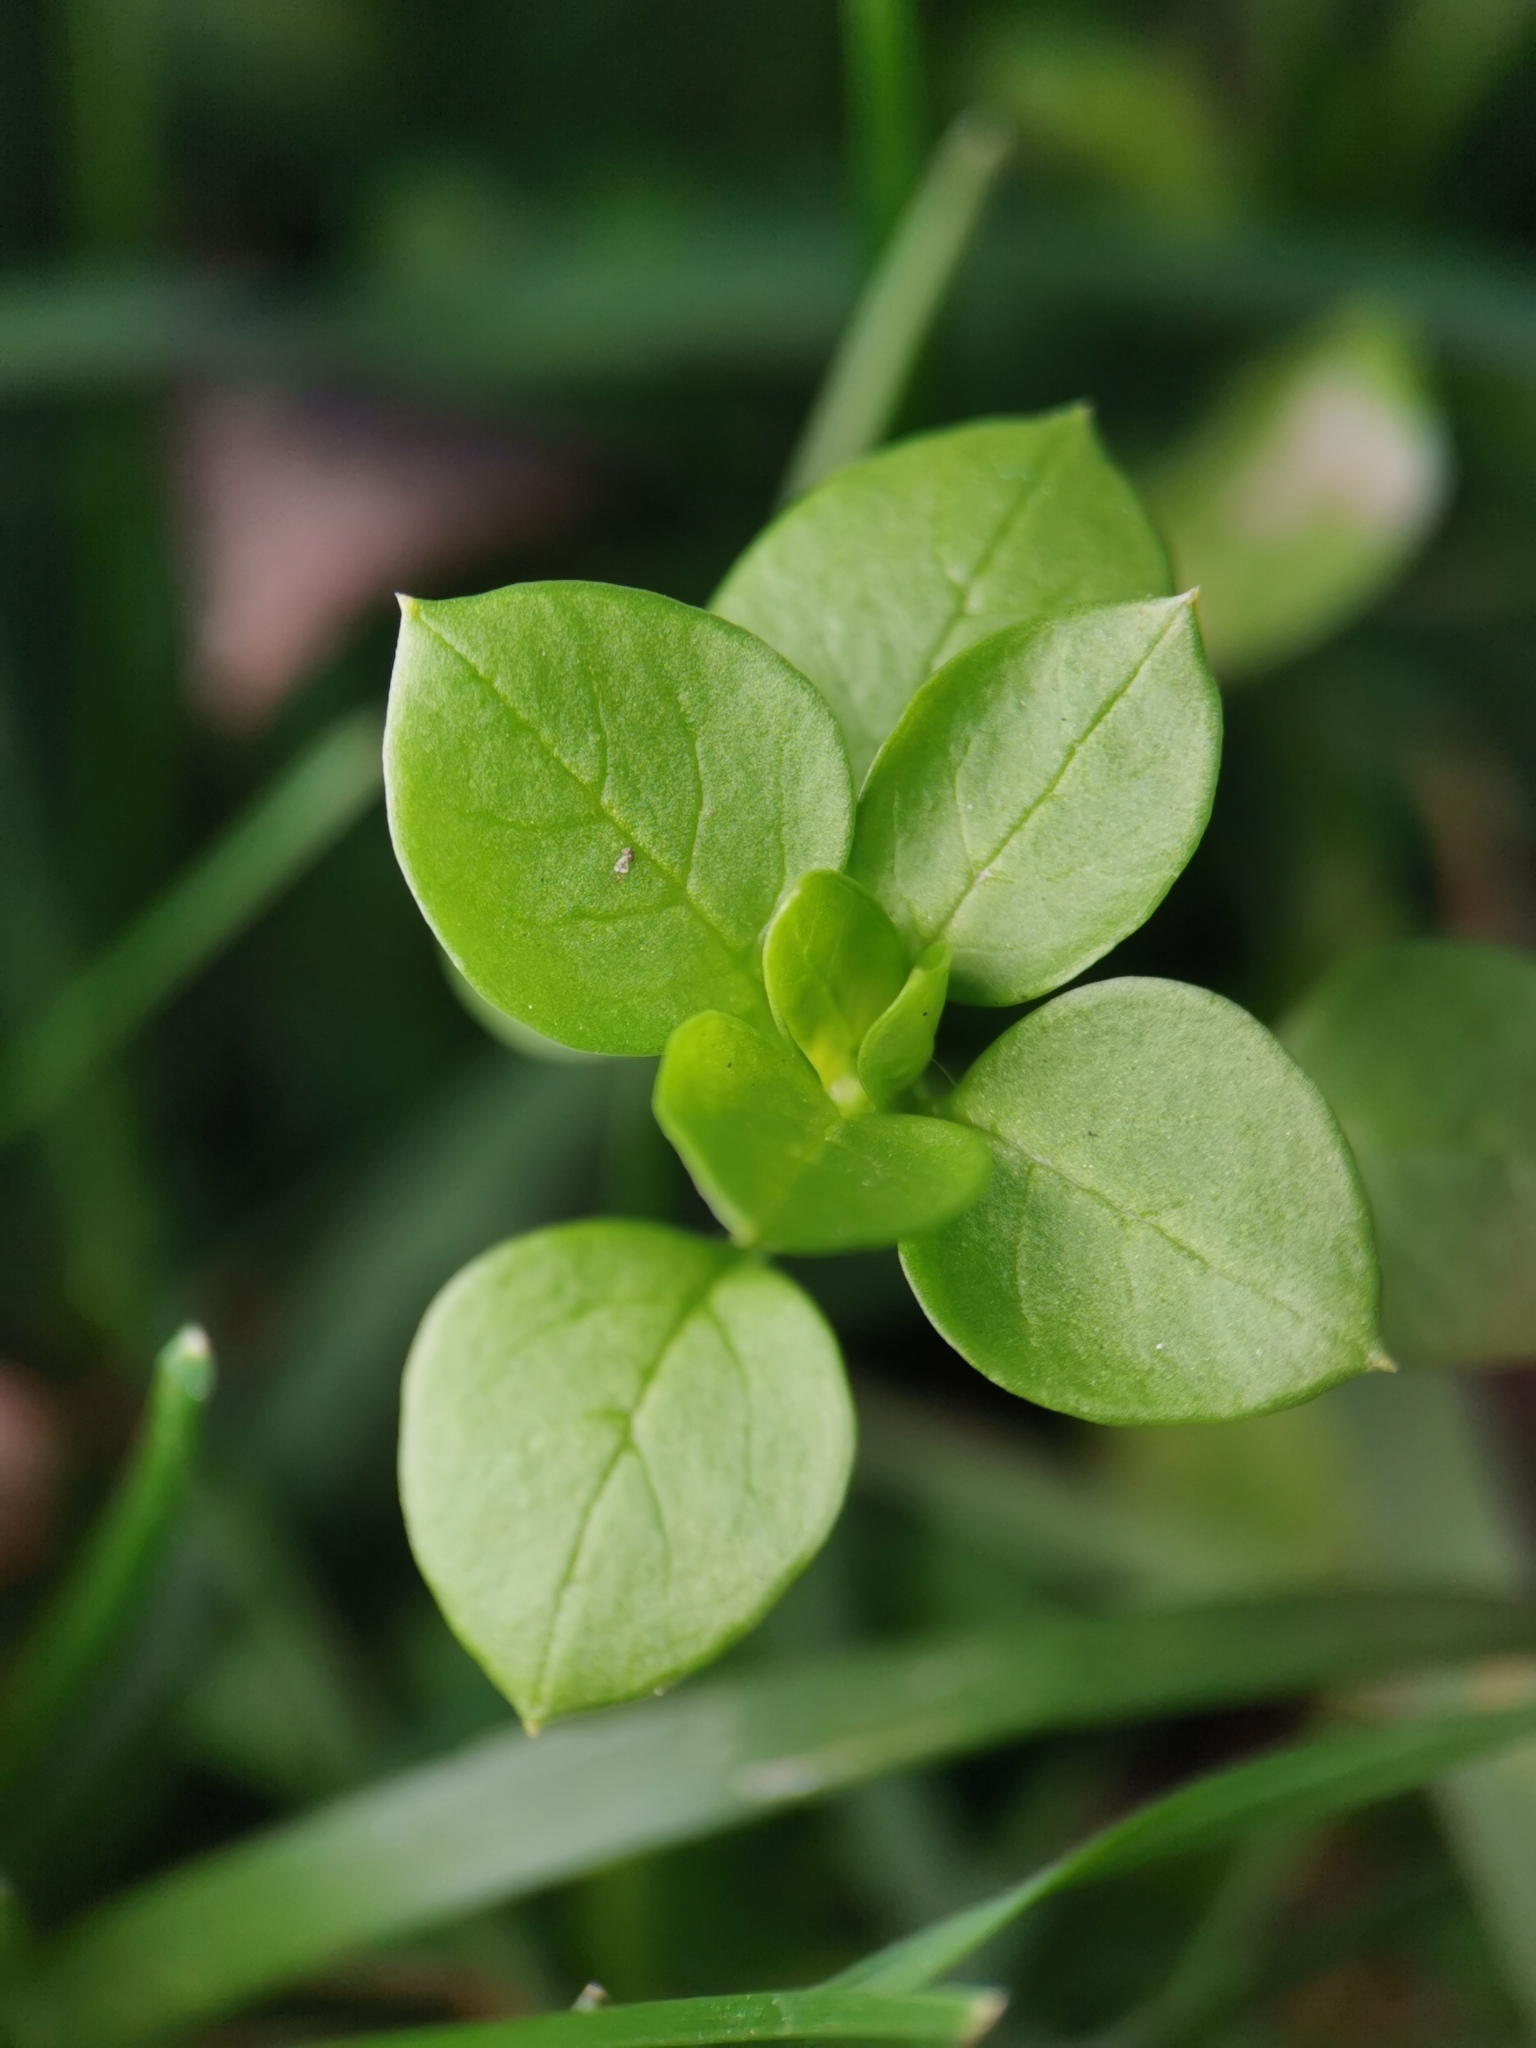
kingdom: Plantae
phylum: Tracheophyta
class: Magnoliopsida
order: Caryophyllales
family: Caryophyllaceae
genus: Stellaria
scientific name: Stellaria media
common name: Common chickweed
